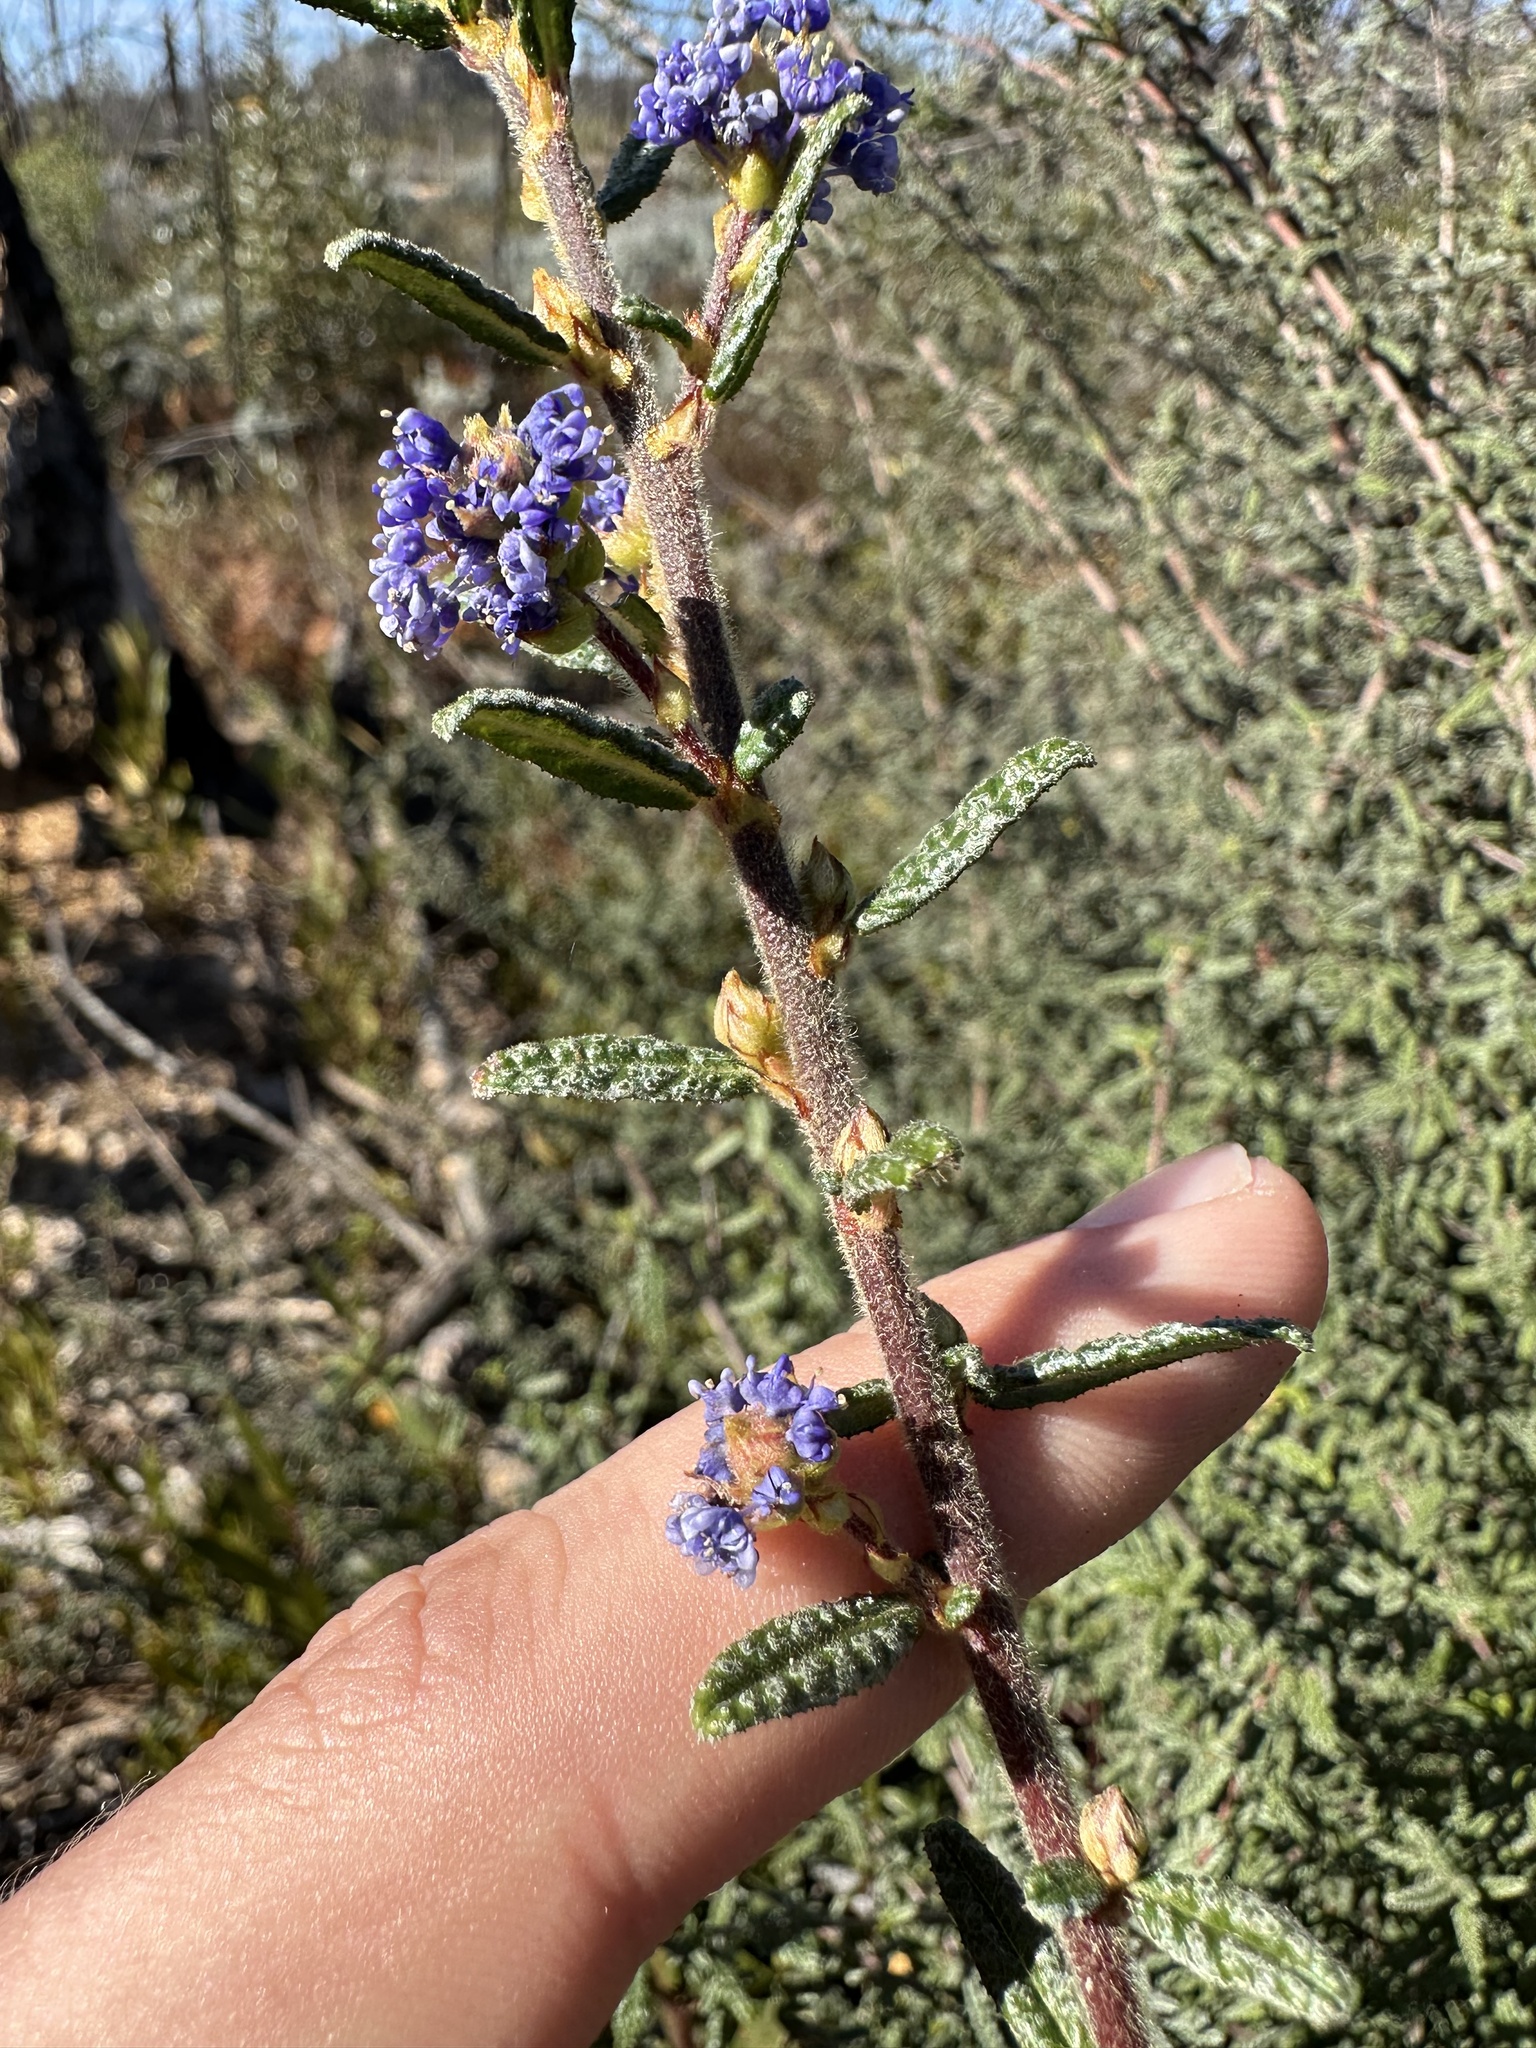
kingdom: Plantae
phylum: Tracheophyta
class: Magnoliopsida
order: Rosales
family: Rhamnaceae
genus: Ceanothus
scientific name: Ceanothus papillosus
